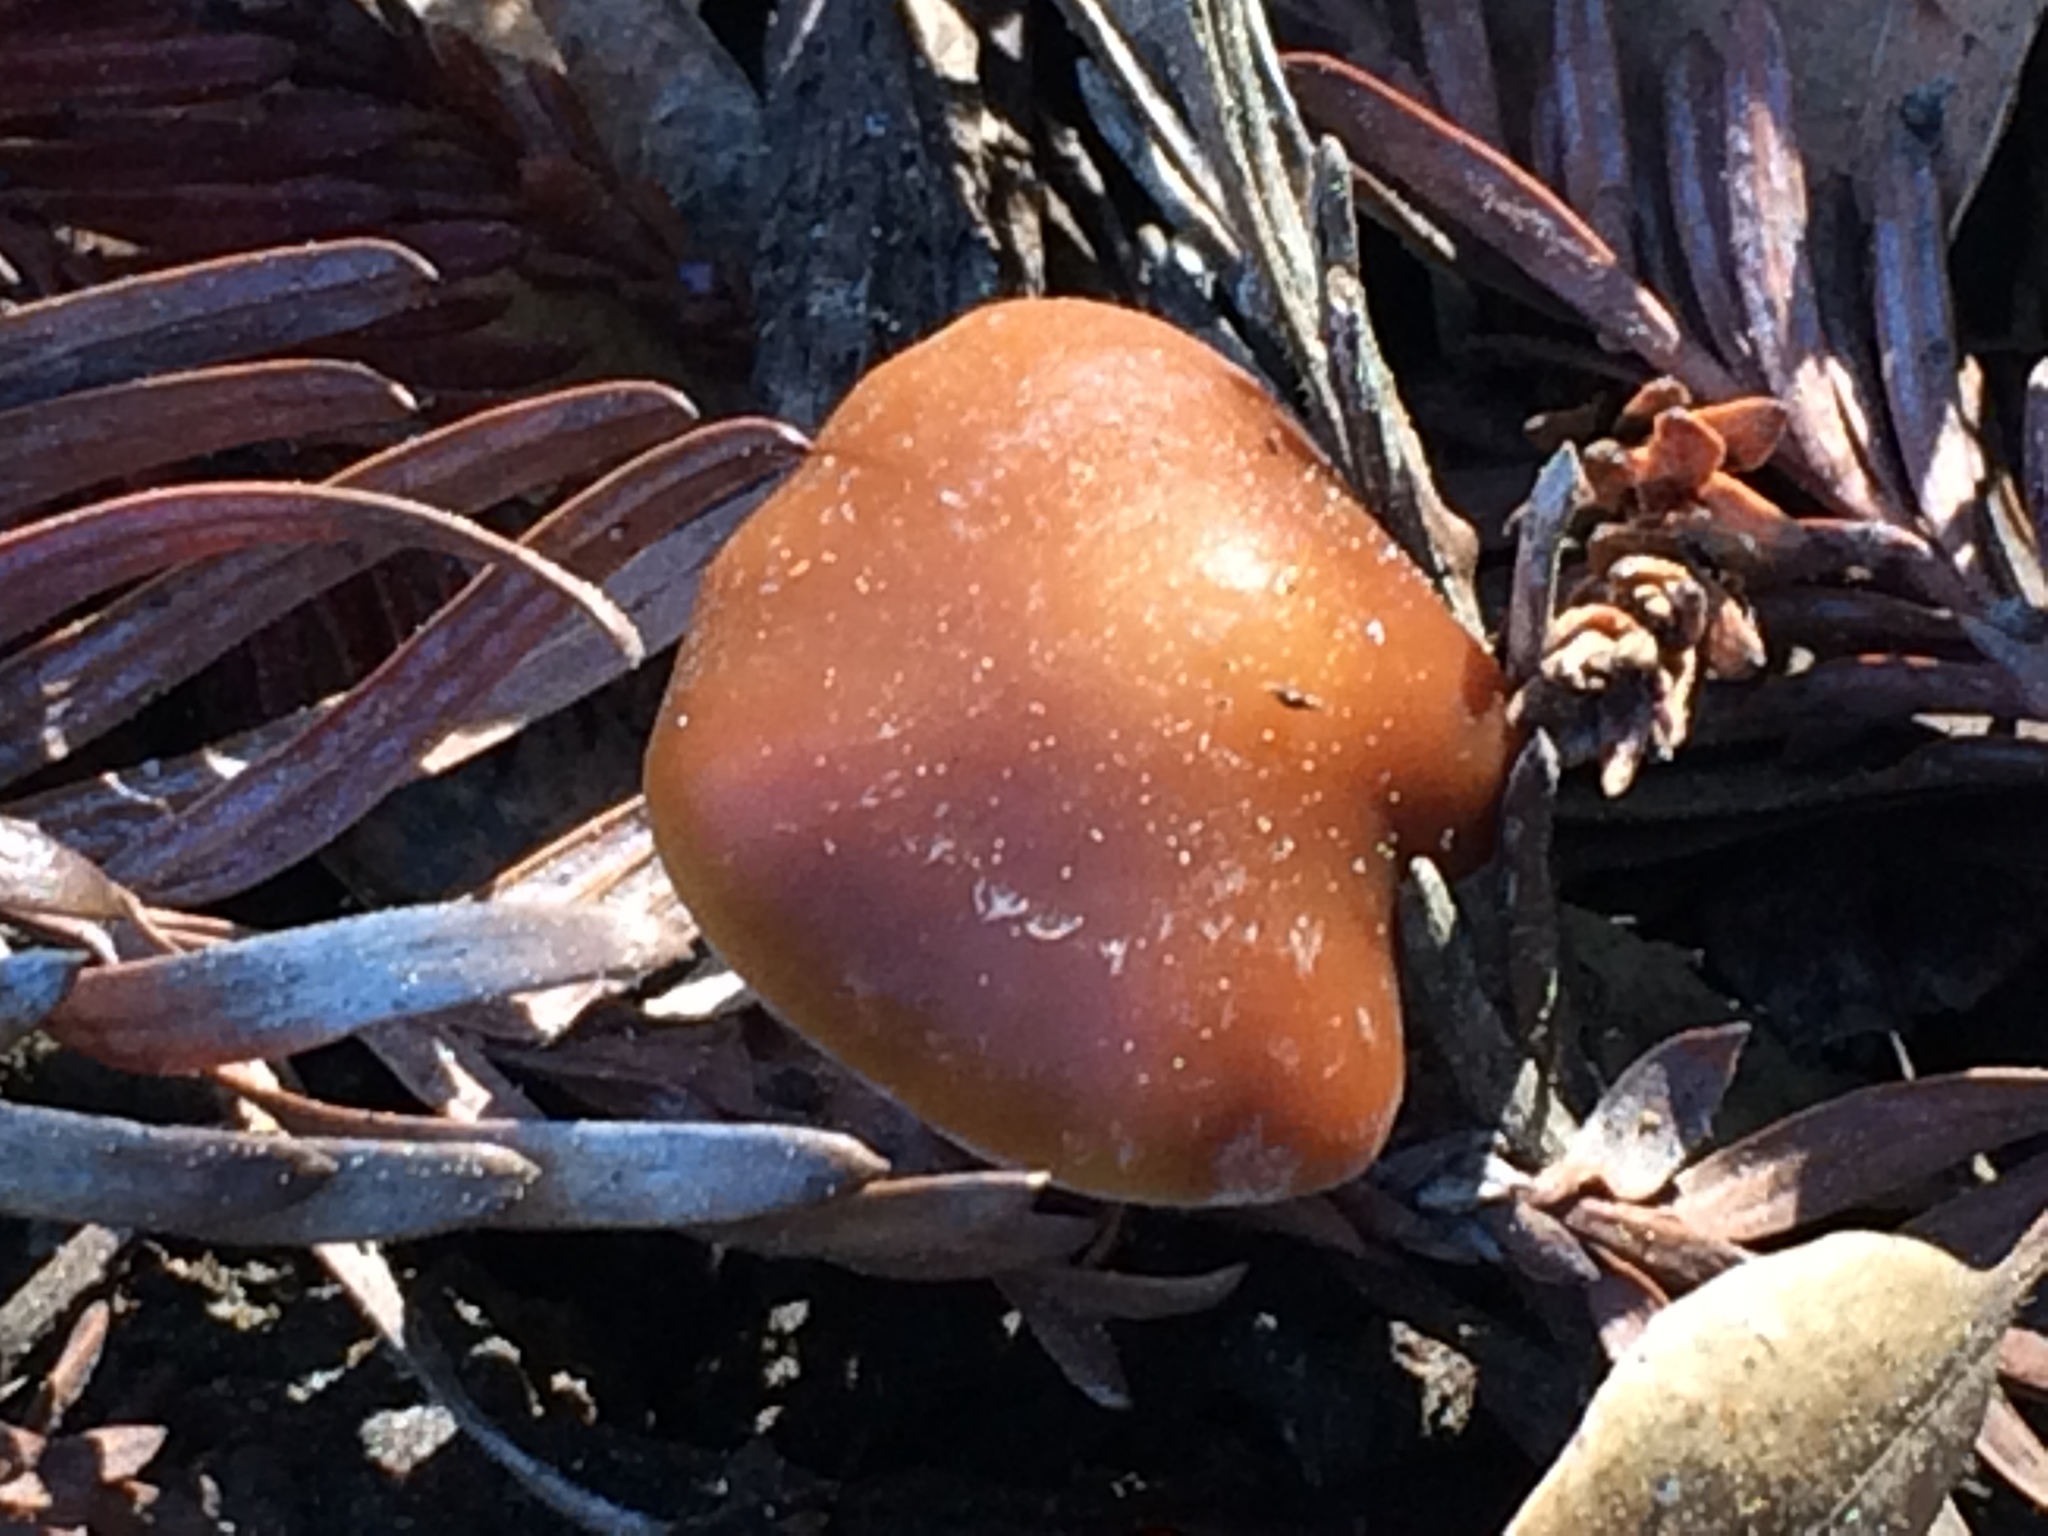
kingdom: Fungi
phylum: Basidiomycota
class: Agaricomycetes
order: Agaricales
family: Strophariaceae
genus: Leratiomyces
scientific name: Leratiomyces ceres
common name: Redlead roundhead
